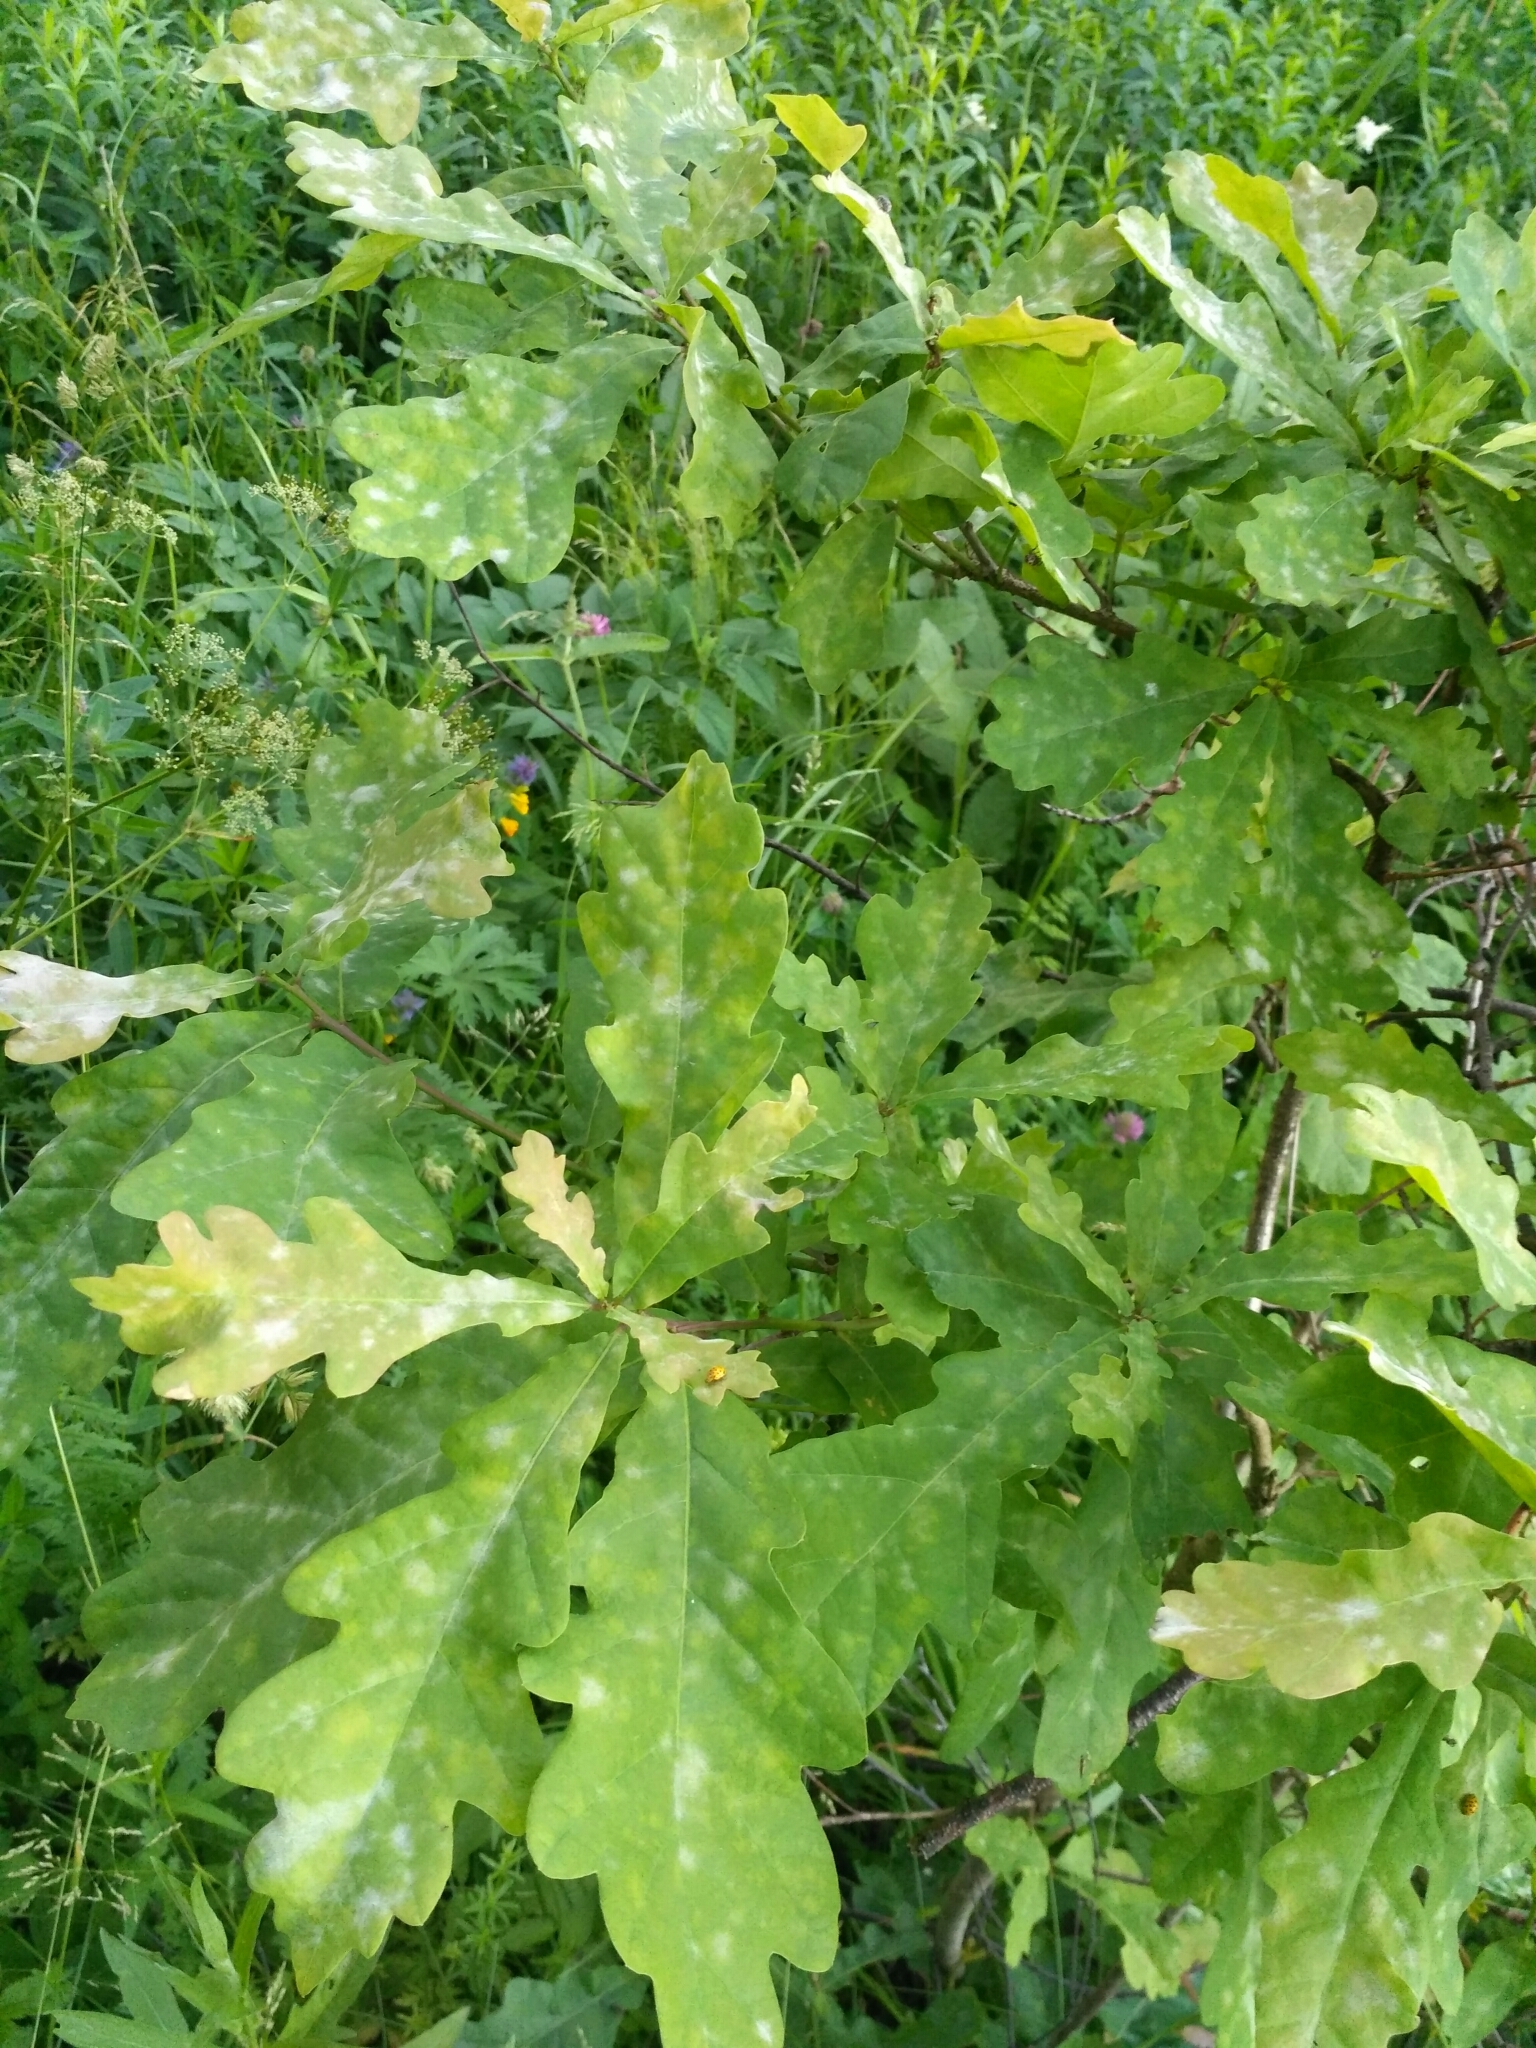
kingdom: Plantae
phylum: Tracheophyta
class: Magnoliopsida
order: Fagales
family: Fagaceae
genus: Quercus
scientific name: Quercus robur
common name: Pedunculate oak
